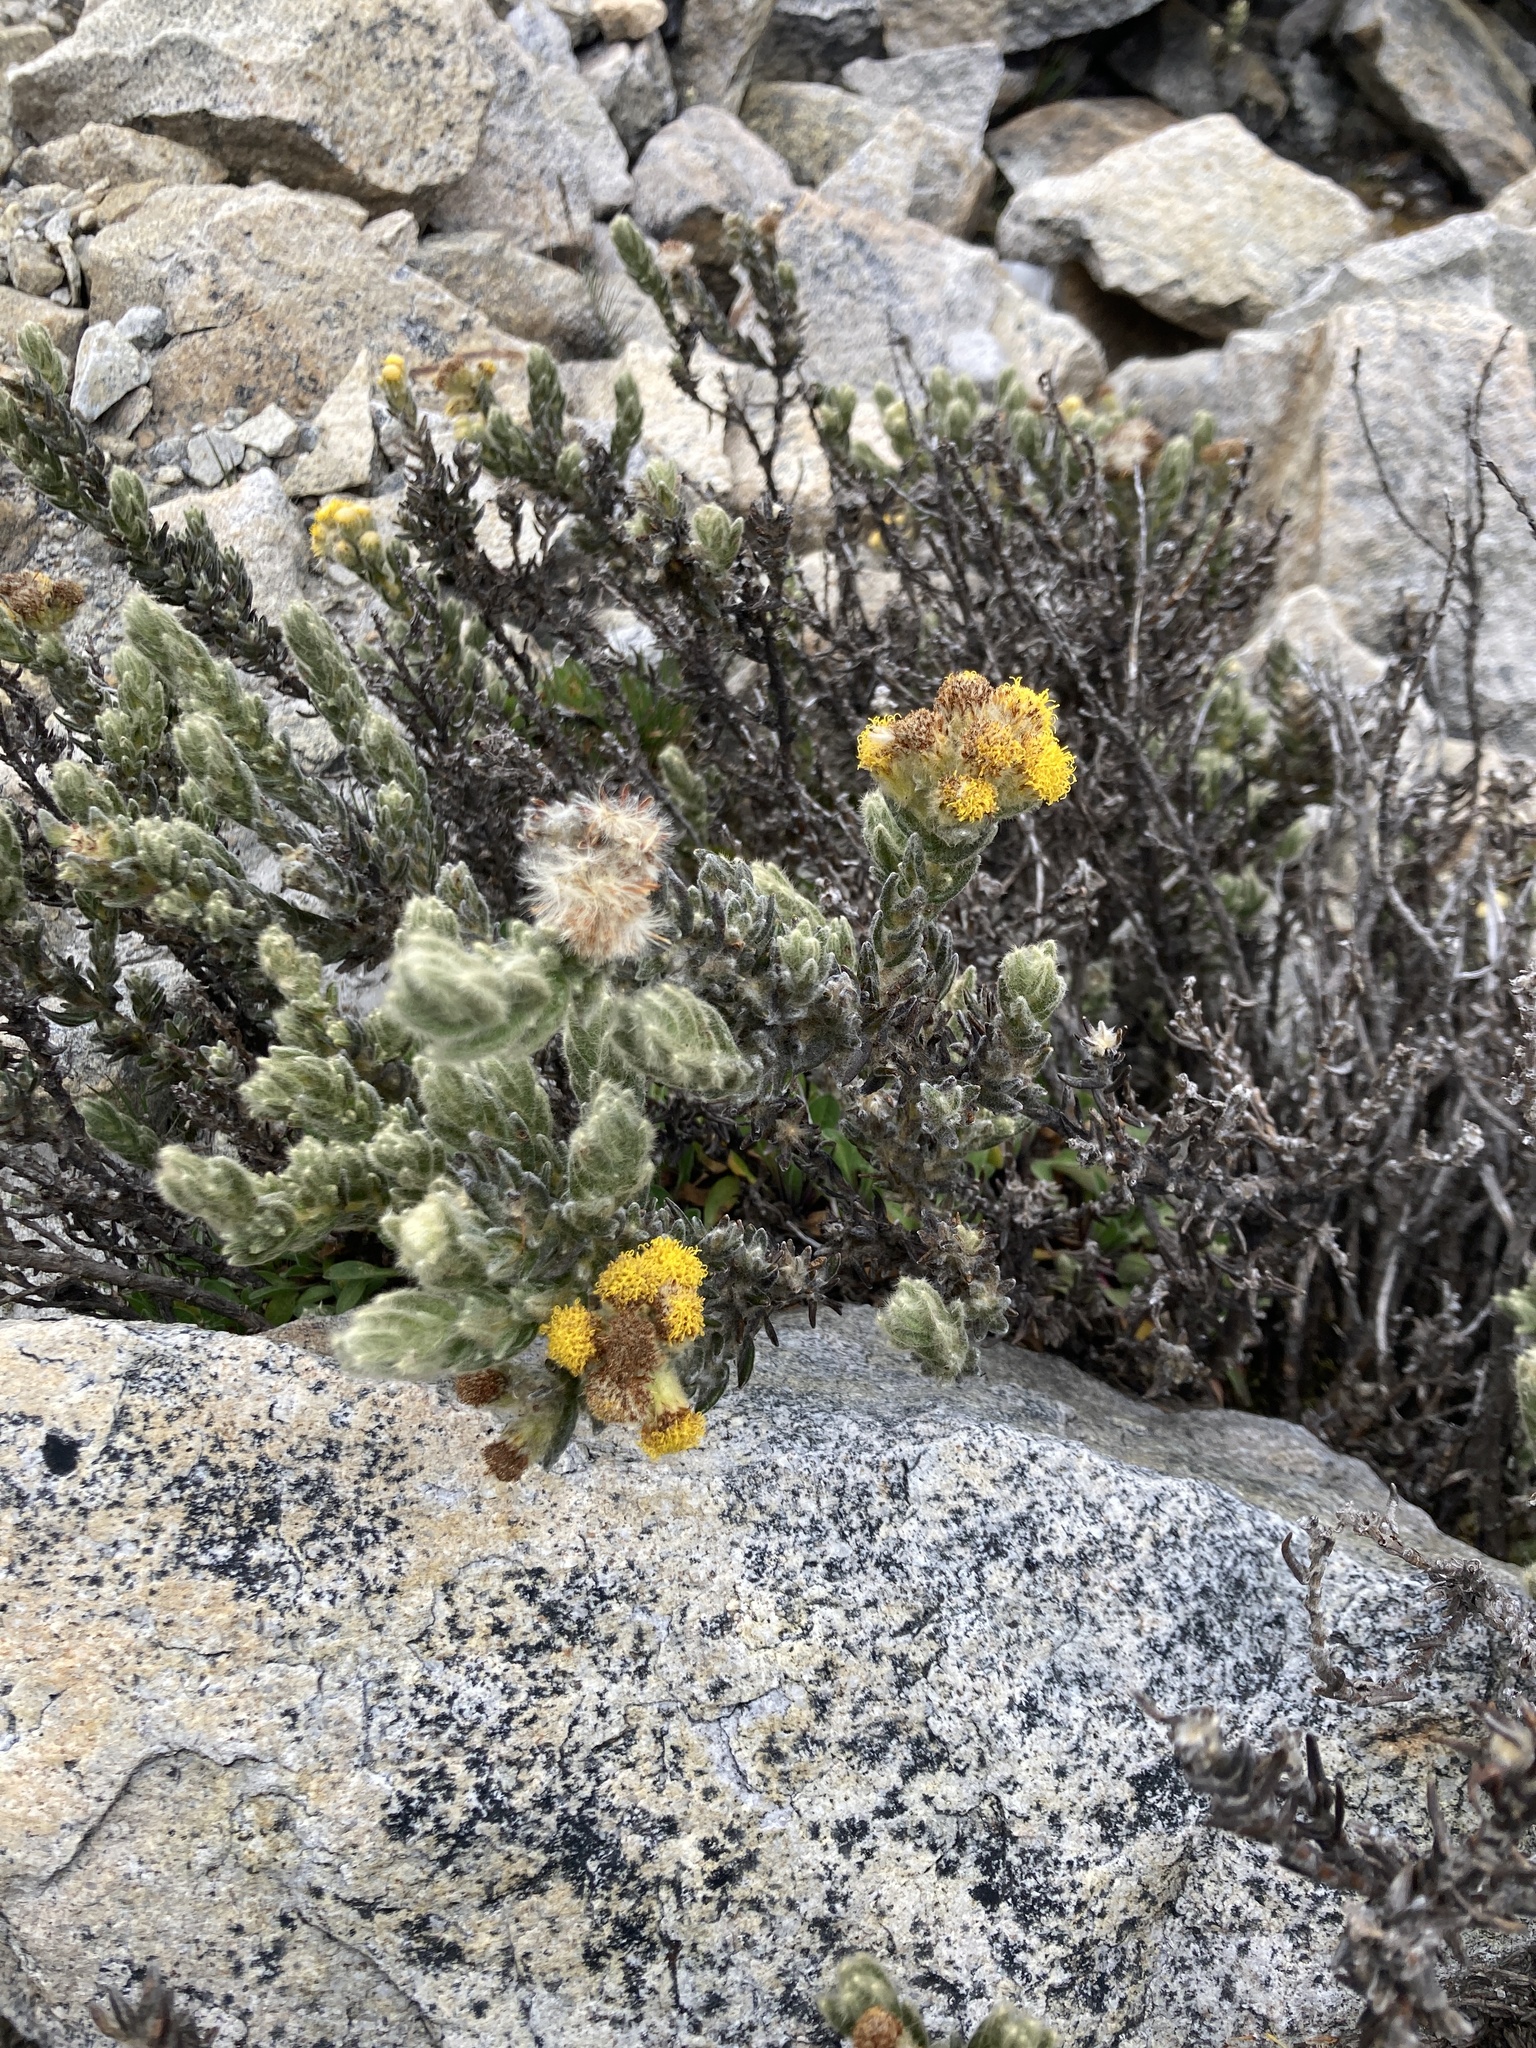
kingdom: Plantae
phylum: Tracheophyta
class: Magnoliopsida
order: Asterales
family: Asteraceae
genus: Monticalia
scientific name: Monticalia guicanensis
